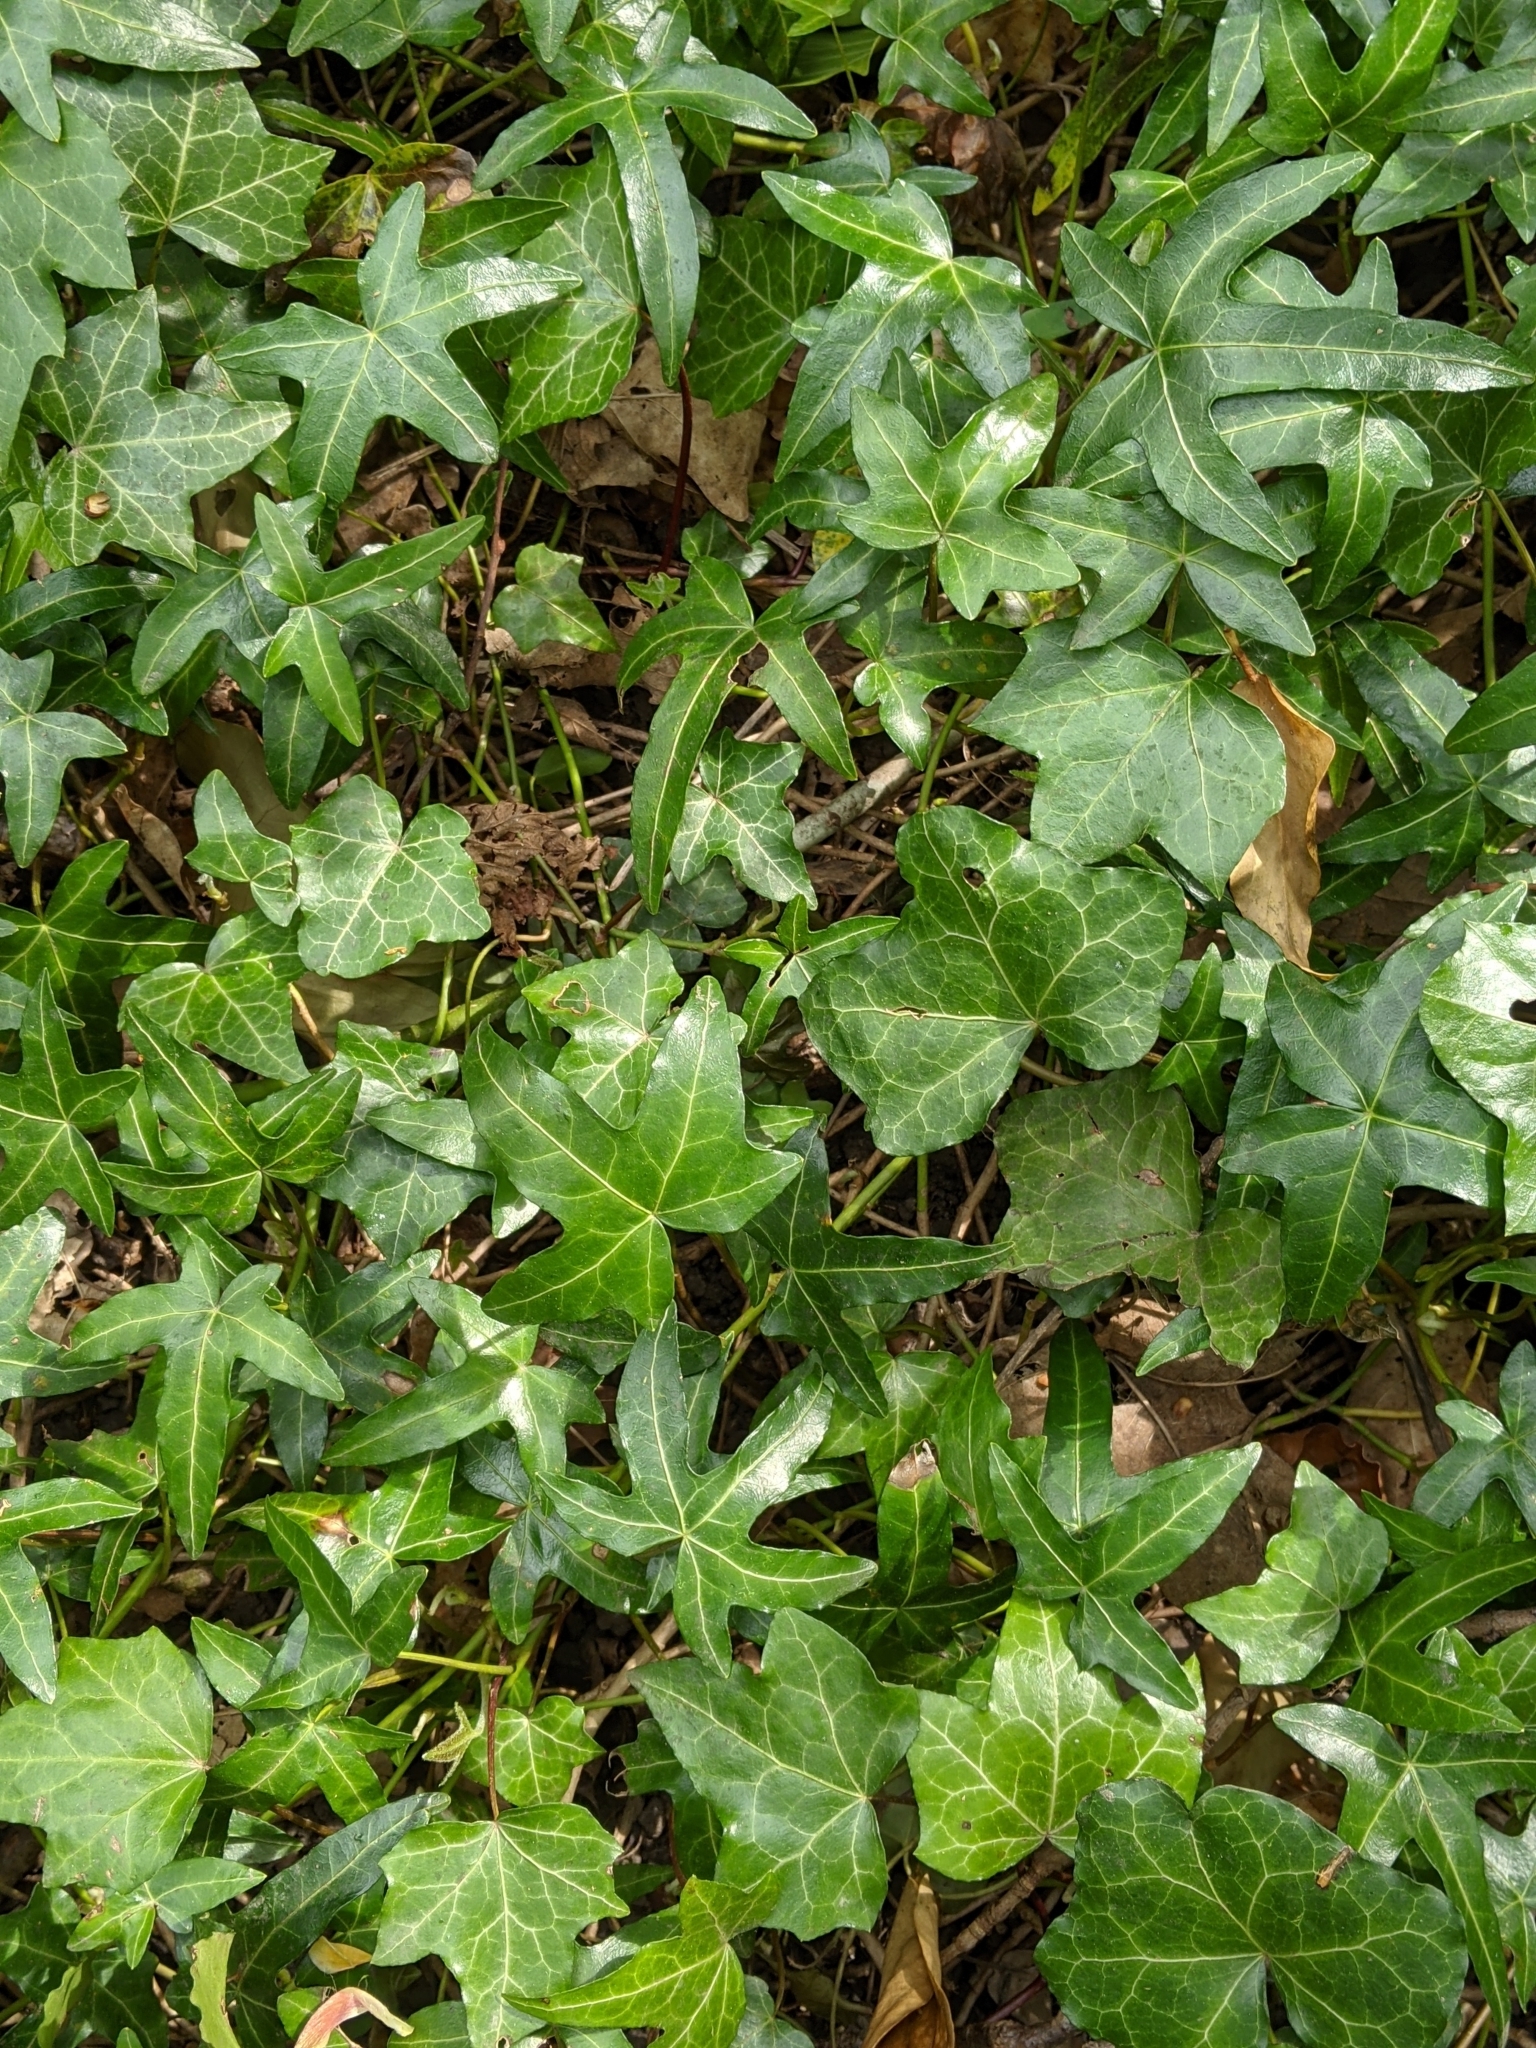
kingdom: Plantae
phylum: Tracheophyta
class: Magnoliopsida
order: Apiales
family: Araliaceae
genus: Hedera
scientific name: Hedera helix
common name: Ivy
